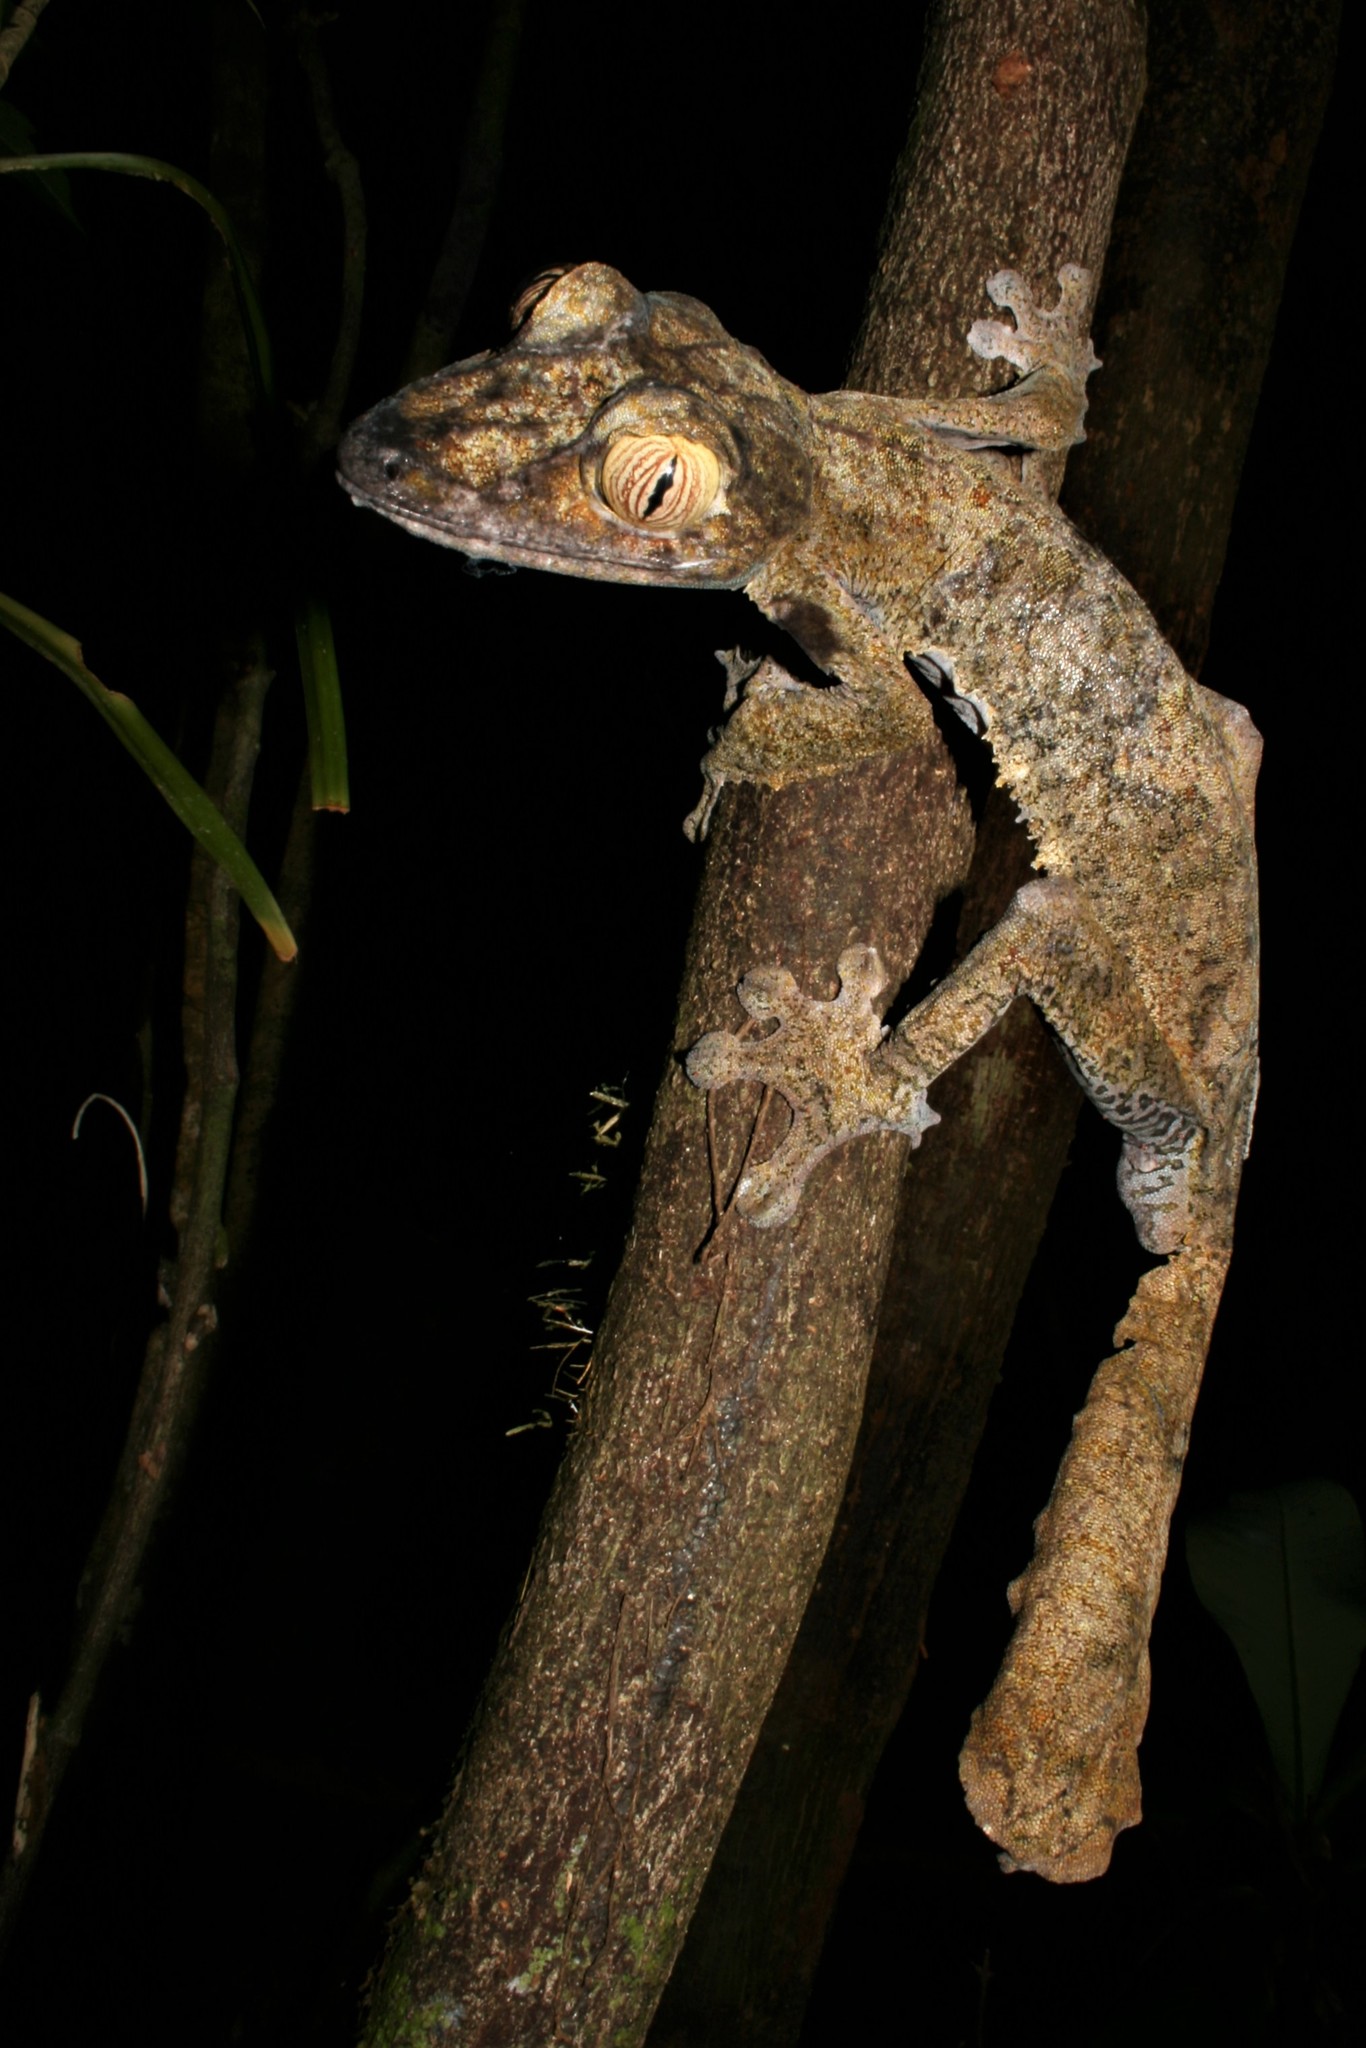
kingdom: Animalia
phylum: Chordata
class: Squamata
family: Gekkonidae
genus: Uroplatus
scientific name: Uroplatus fimbriatus
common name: Common flat-tail gecko
